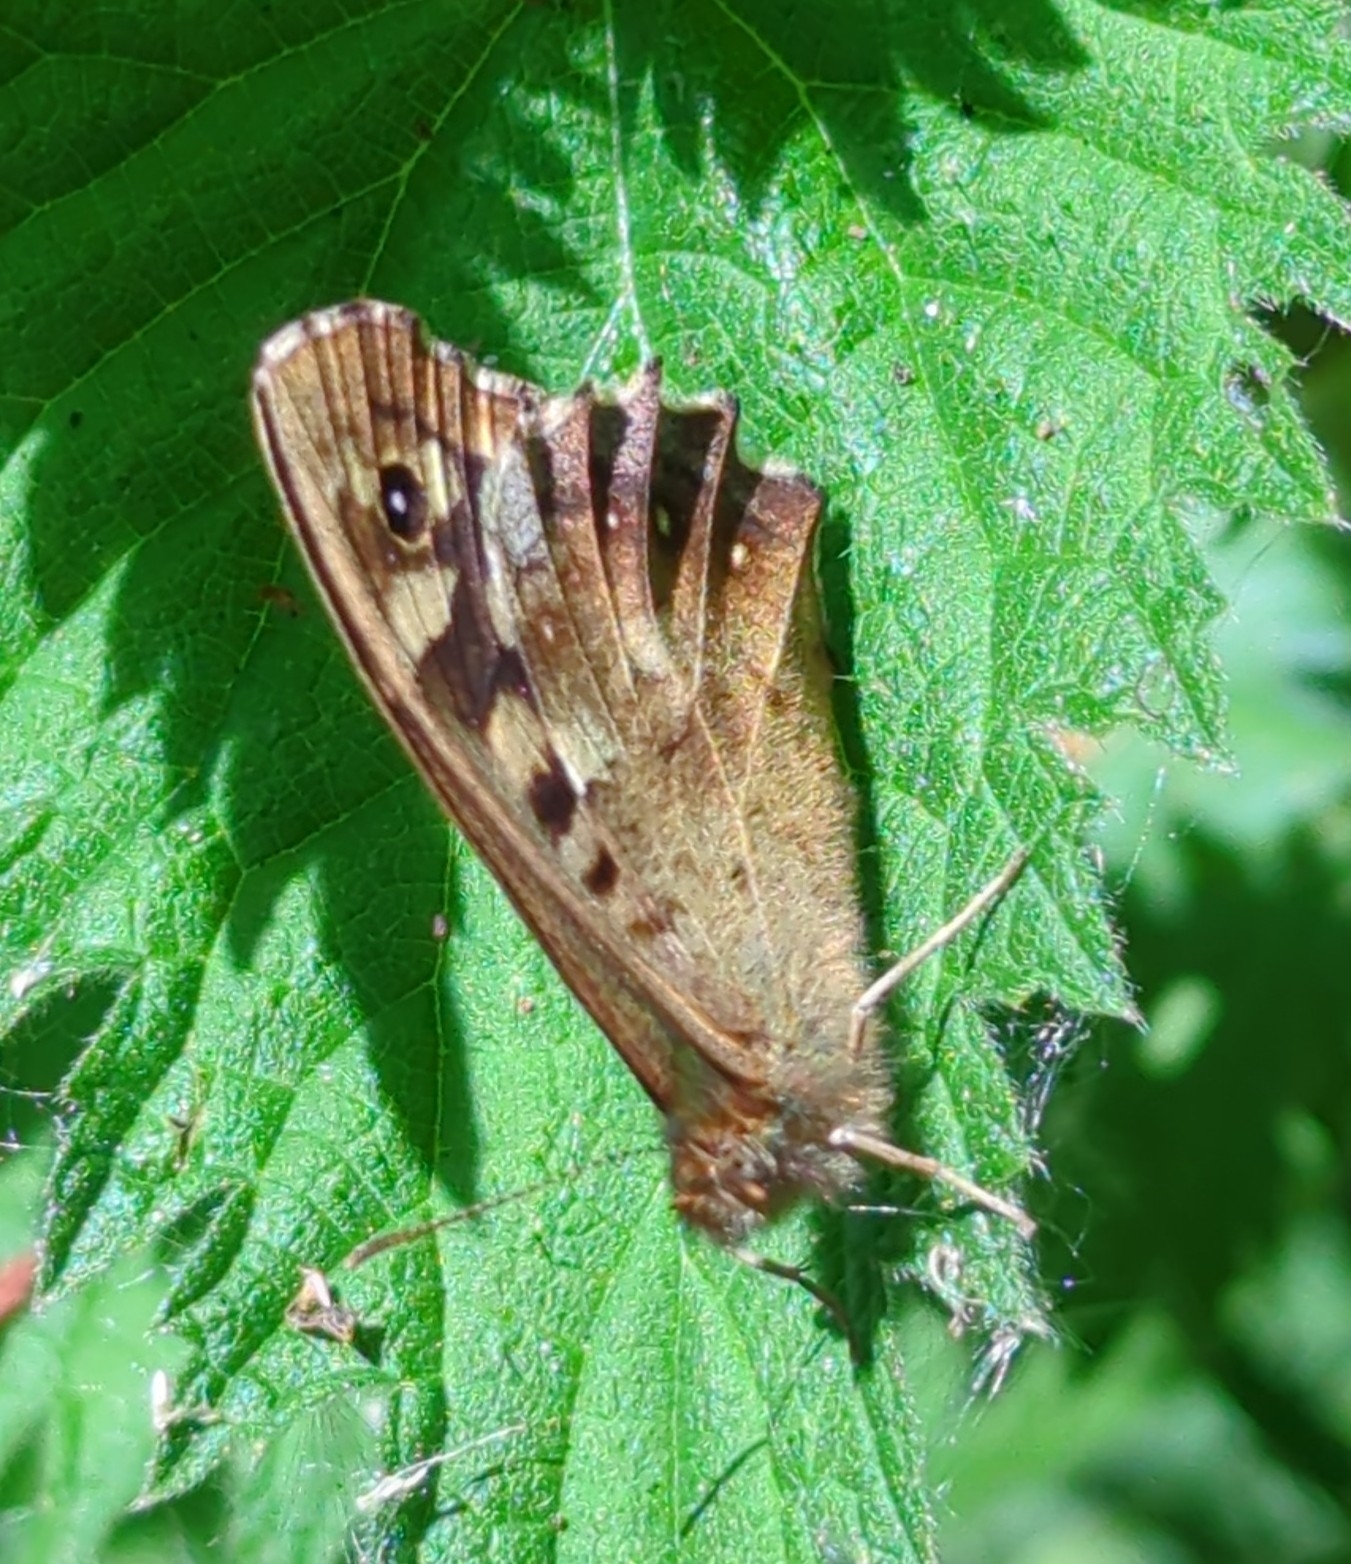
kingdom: Animalia
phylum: Arthropoda
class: Insecta
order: Lepidoptera
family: Nymphalidae
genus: Pararge
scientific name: Pararge aegeria
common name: Speckled wood
